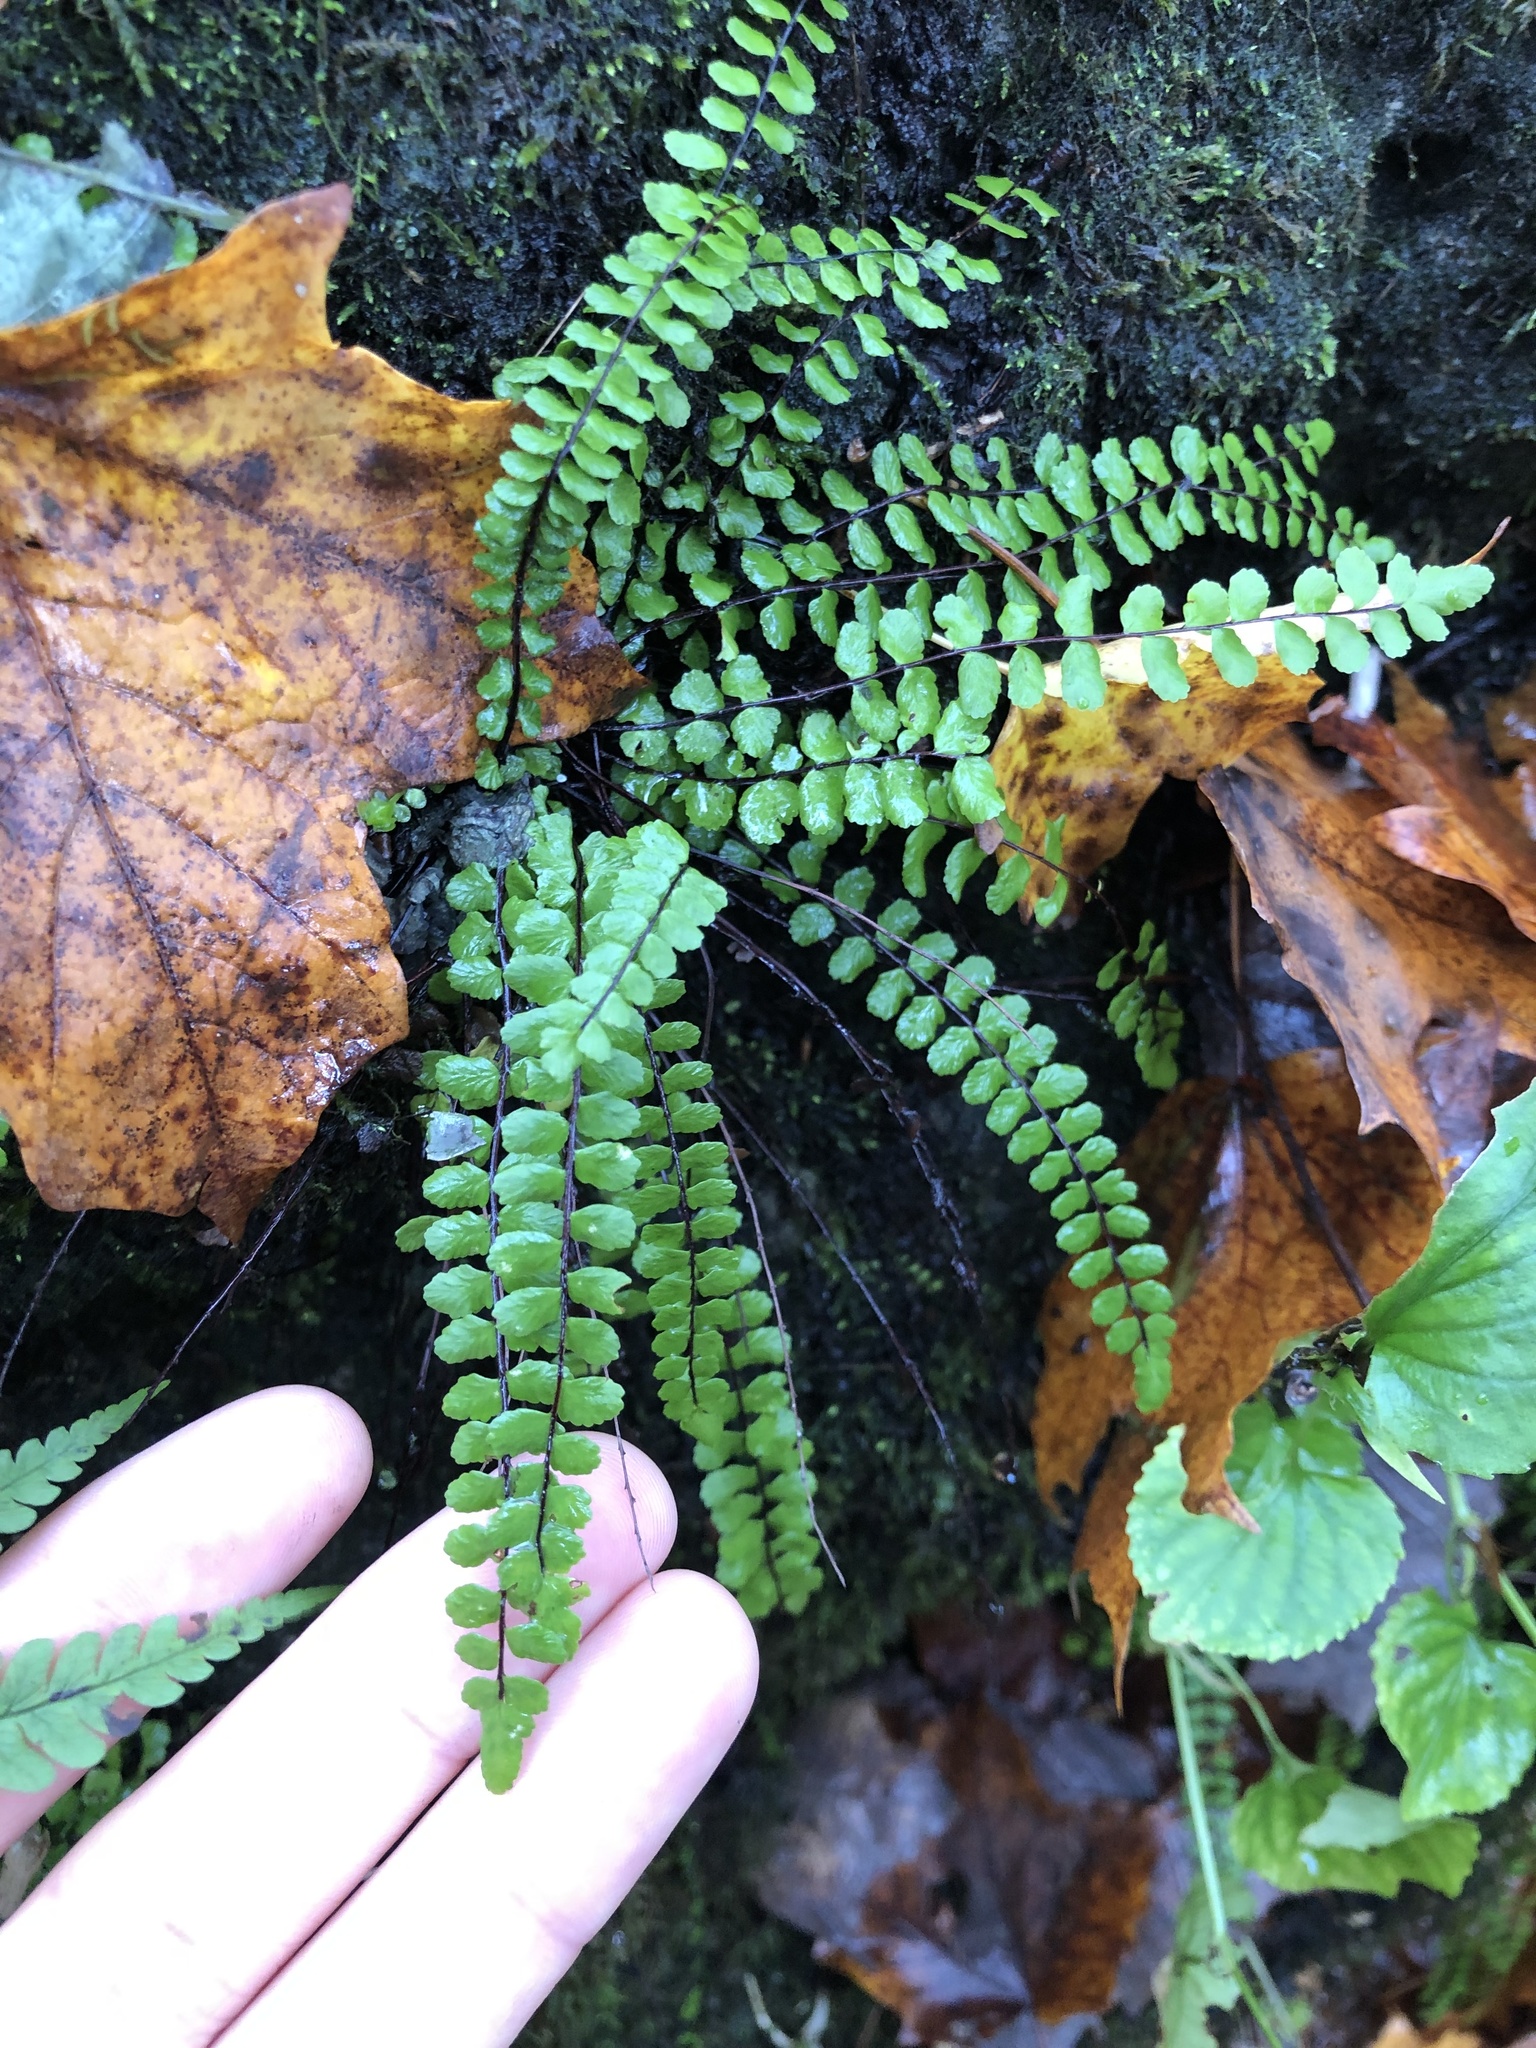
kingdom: Plantae
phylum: Tracheophyta
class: Polypodiopsida
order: Polypodiales
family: Aspleniaceae
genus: Asplenium
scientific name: Asplenium trichomanes
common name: Maidenhair spleenwort
